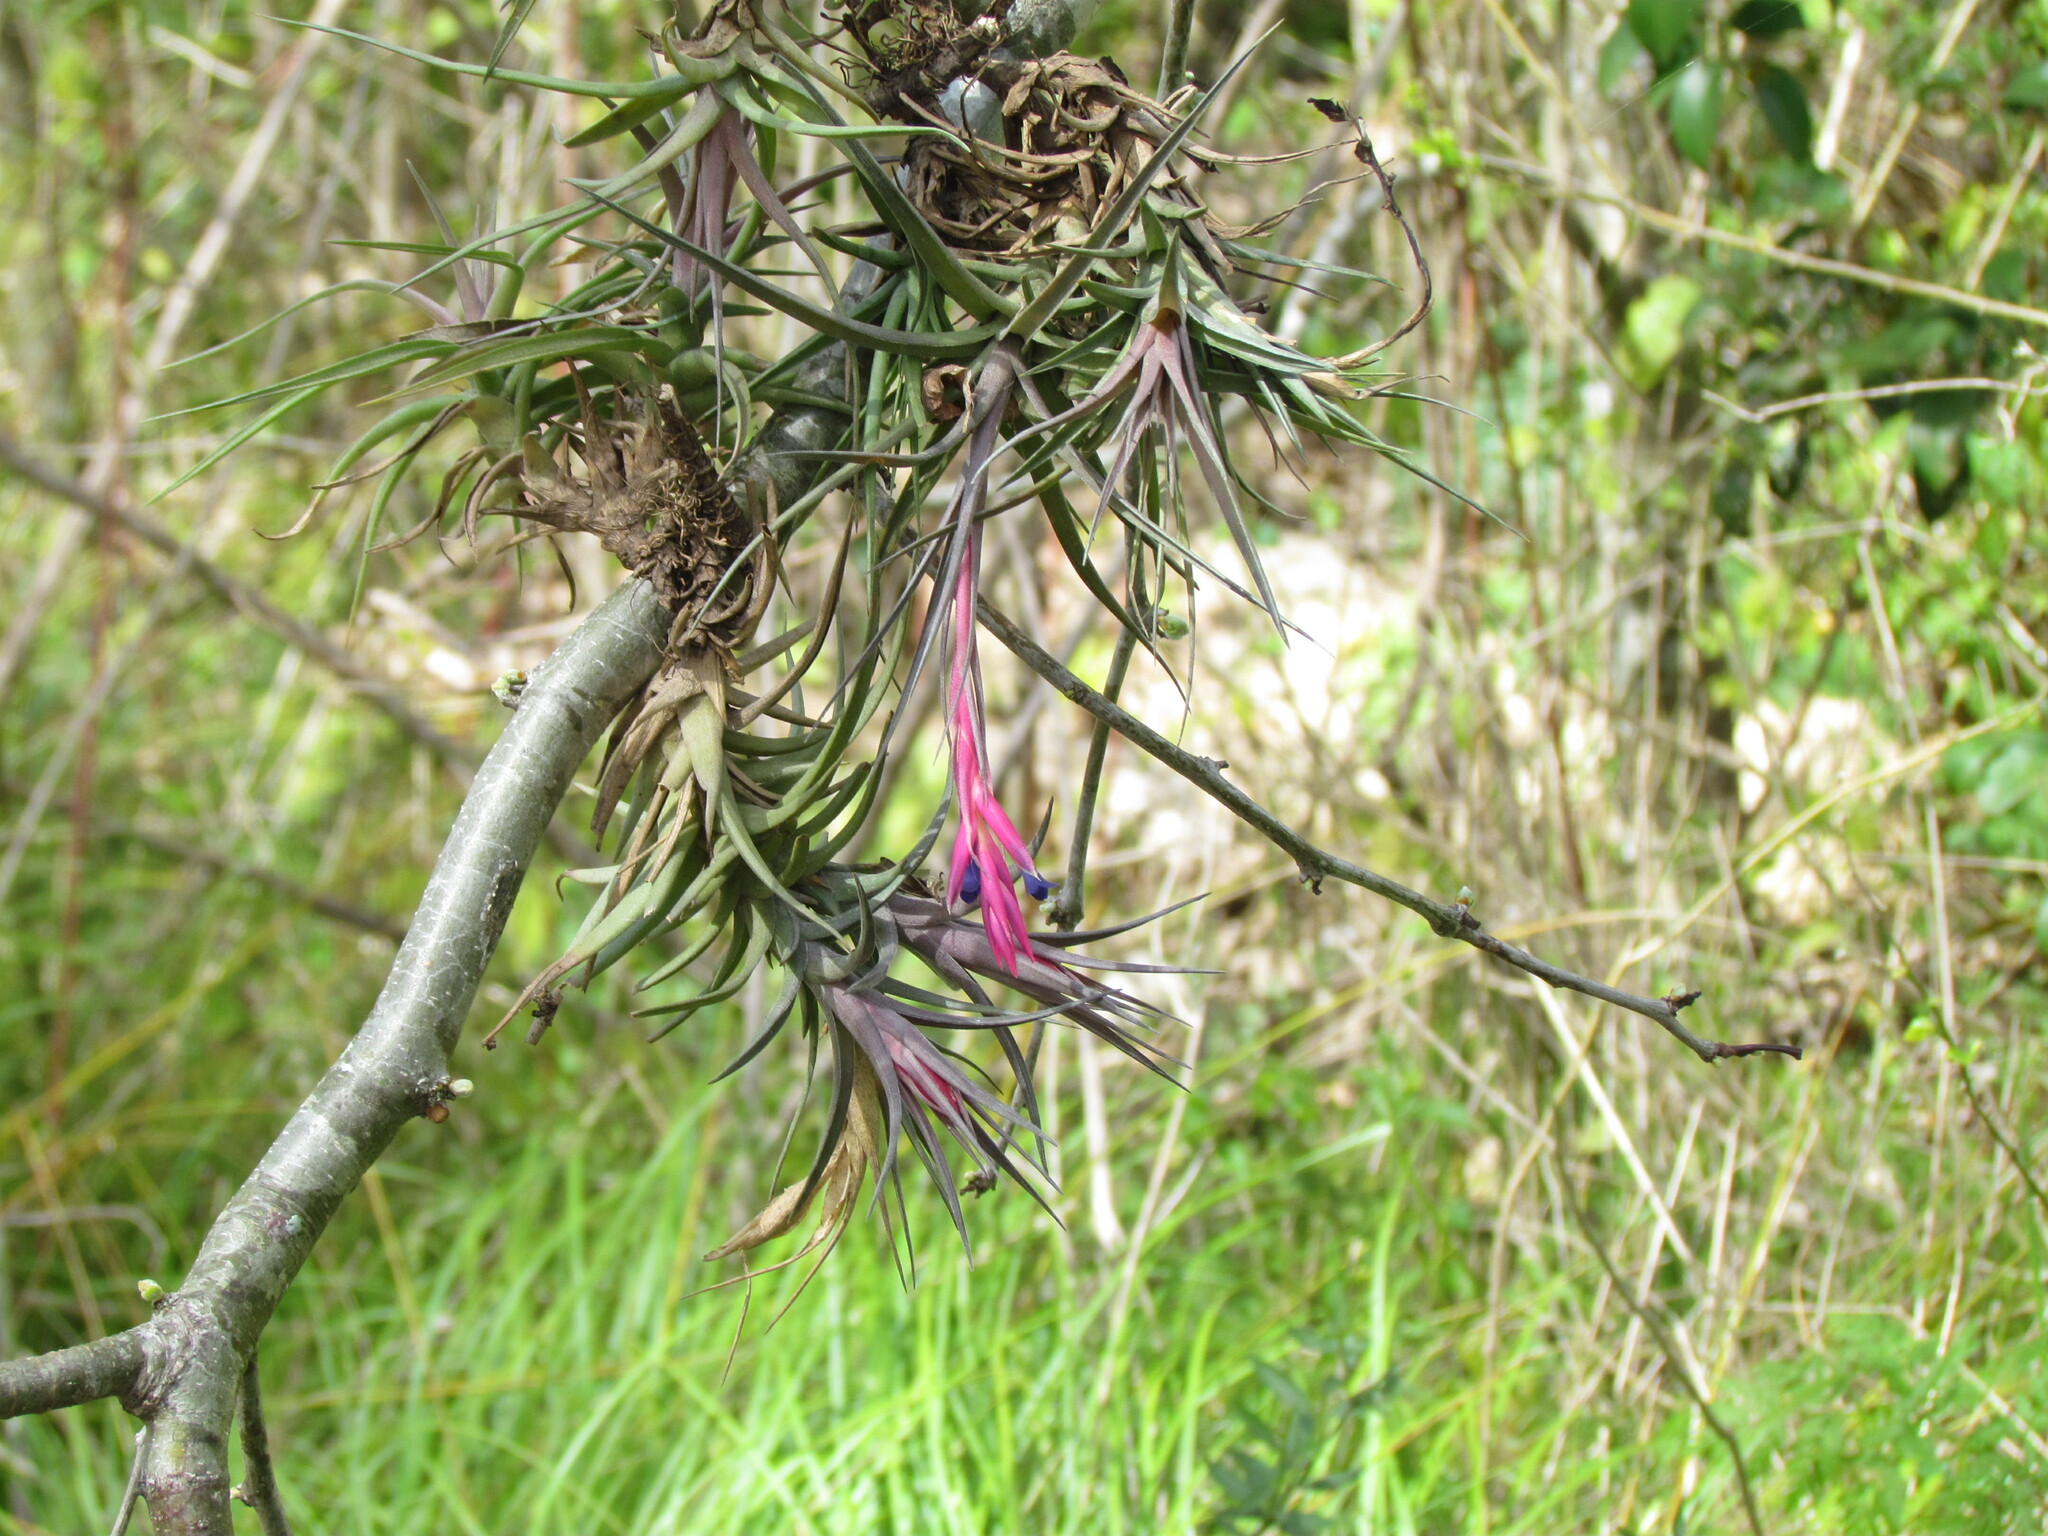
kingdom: Plantae
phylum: Tracheophyta
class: Liliopsida
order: Poales
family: Bromeliaceae
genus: Tillandsia
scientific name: Tillandsia aeranthos
